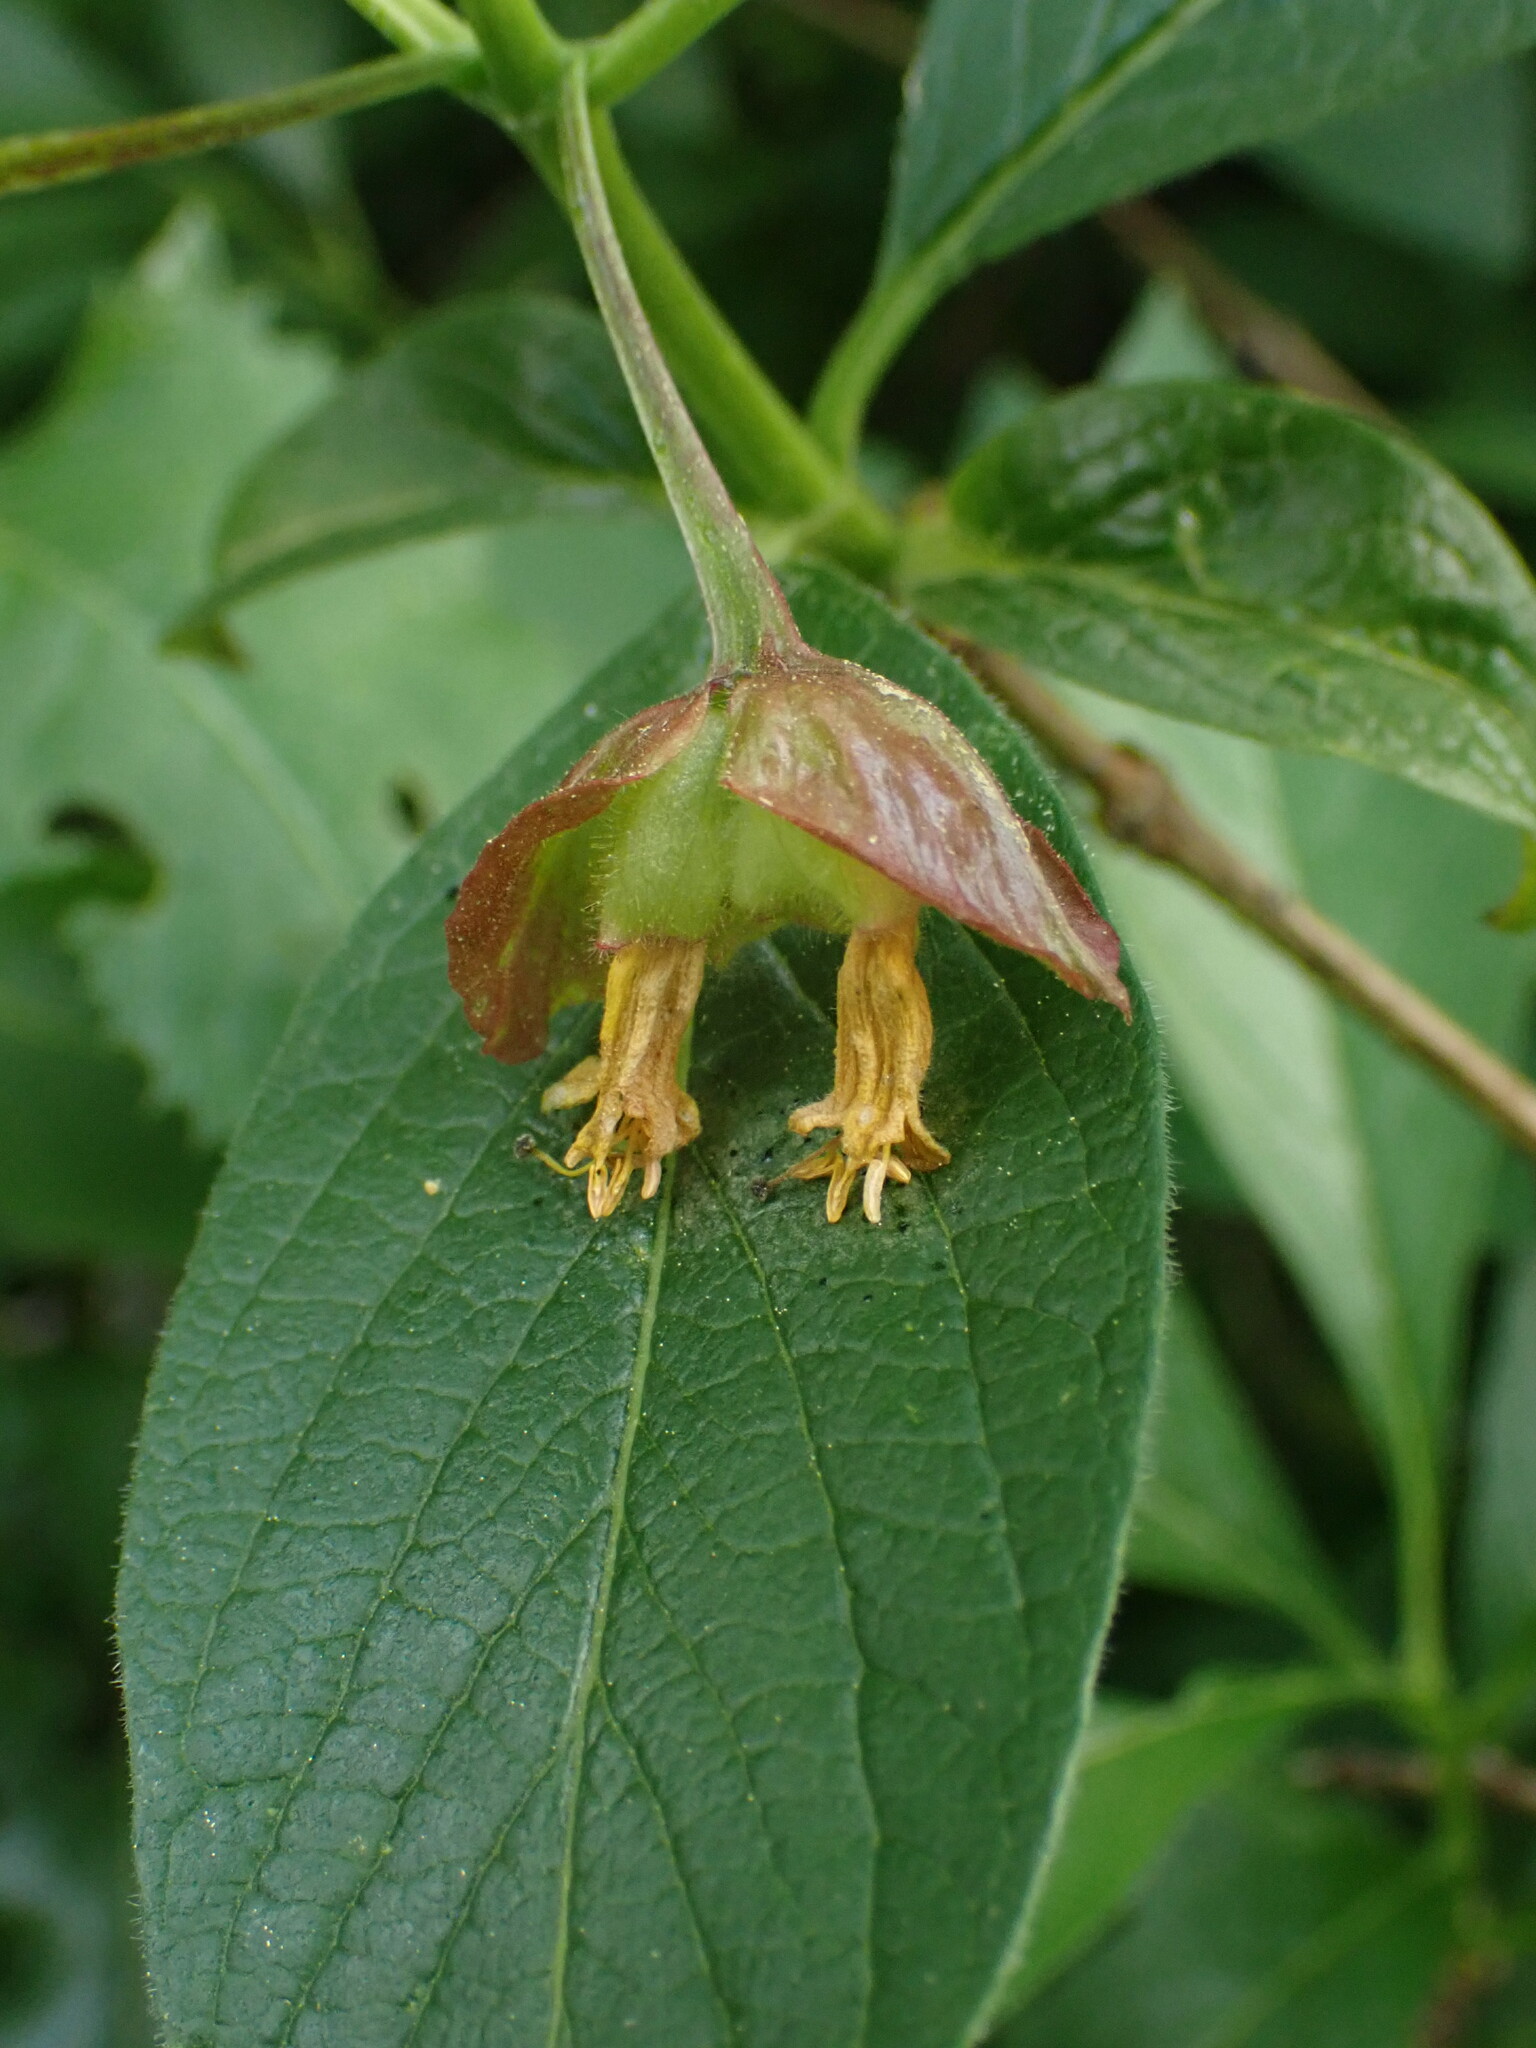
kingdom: Plantae
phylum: Tracheophyta
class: Magnoliopsida
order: Dipsacales
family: Caprifoliaceae
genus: Lonicera
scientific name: Lonicera involucrata
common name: Californian honeysuckle
